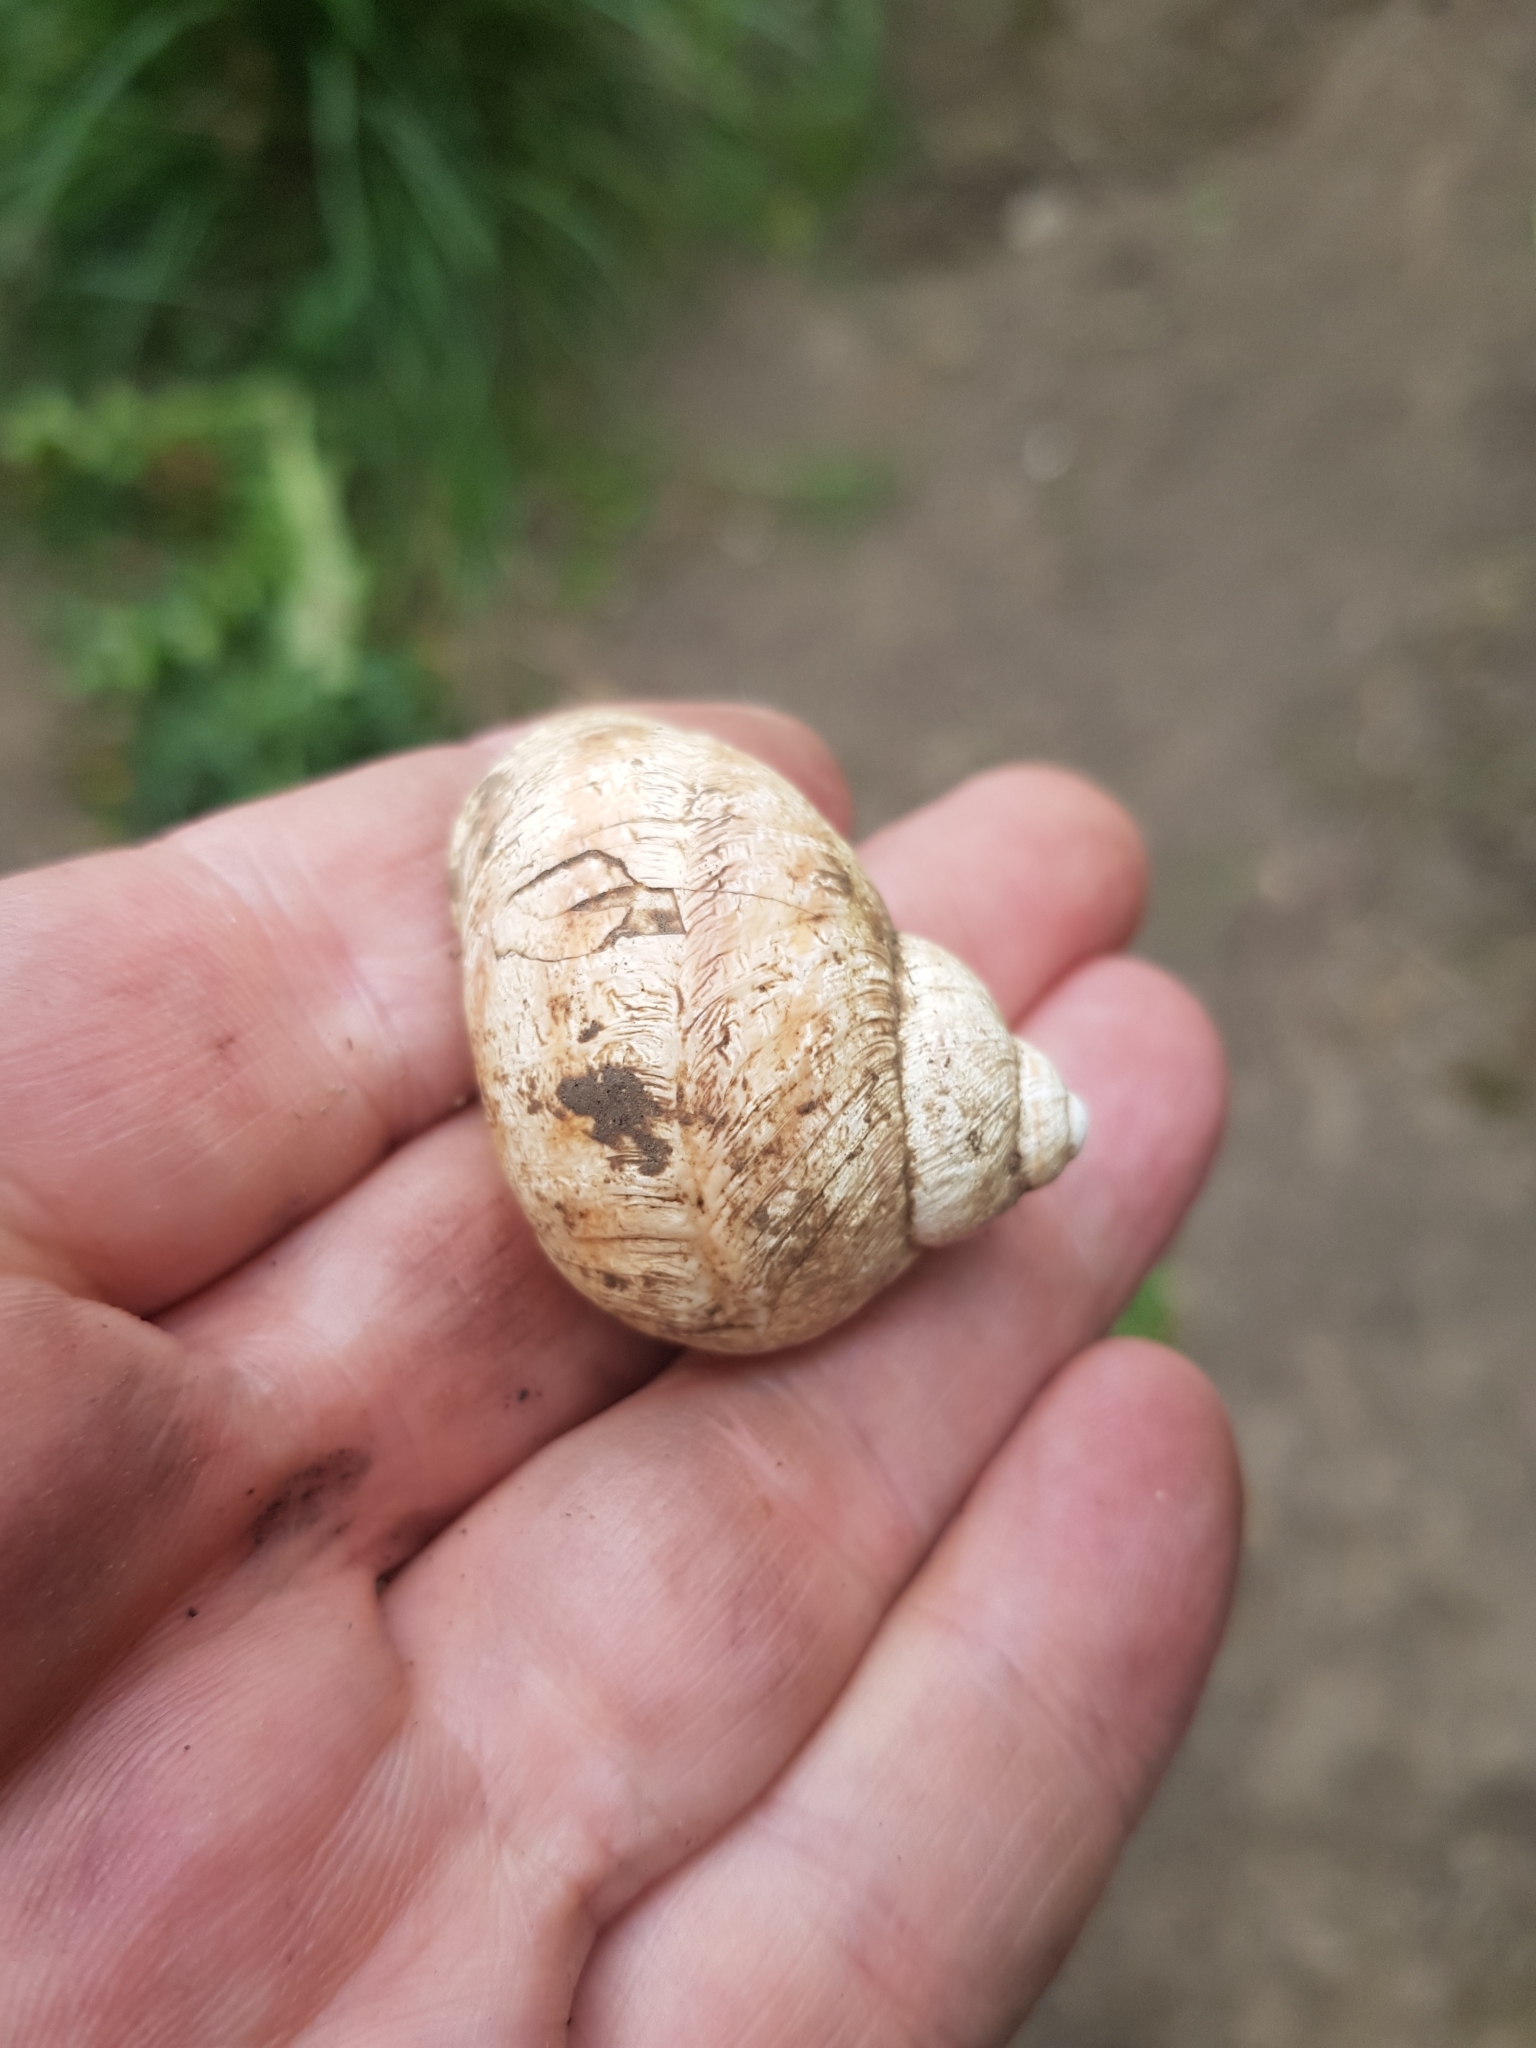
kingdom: Animalia
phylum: Mollusca
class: Gastropoda
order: Stylommatophora
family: Helicidae
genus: Cornu
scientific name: Cornu aspersum
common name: Brown garden snail
